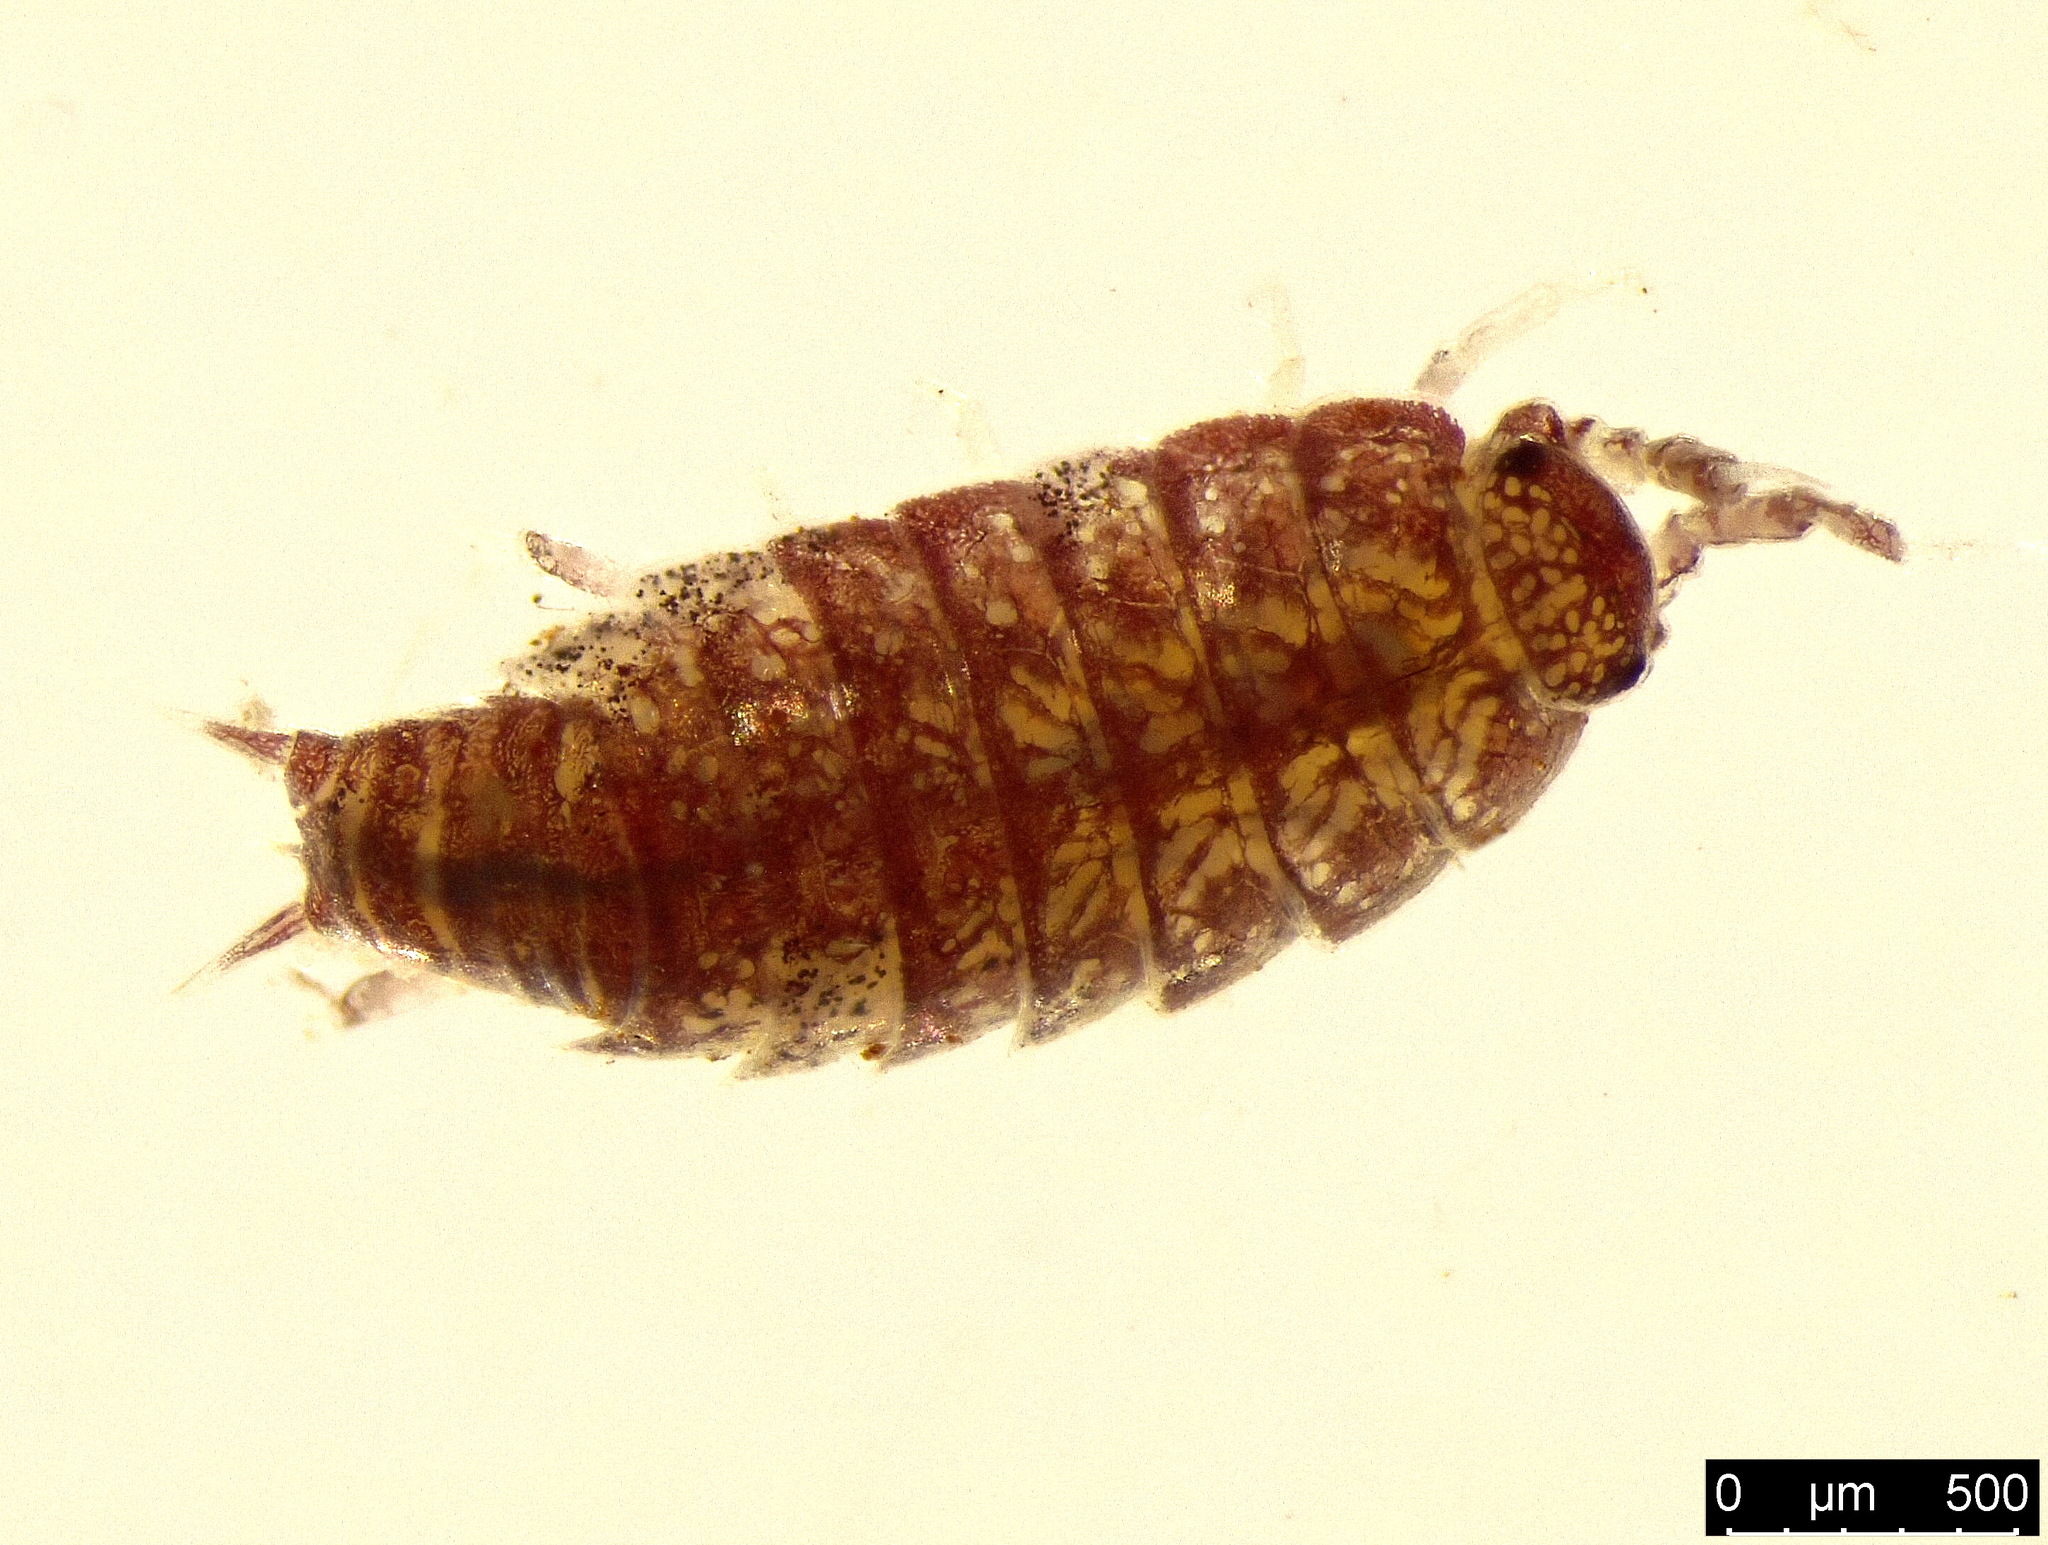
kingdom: Animalia
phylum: Arthropoda
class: Malacostraca
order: Isopoda
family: Trichoniscidae
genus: Trichoniscus
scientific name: Trichoniscus
